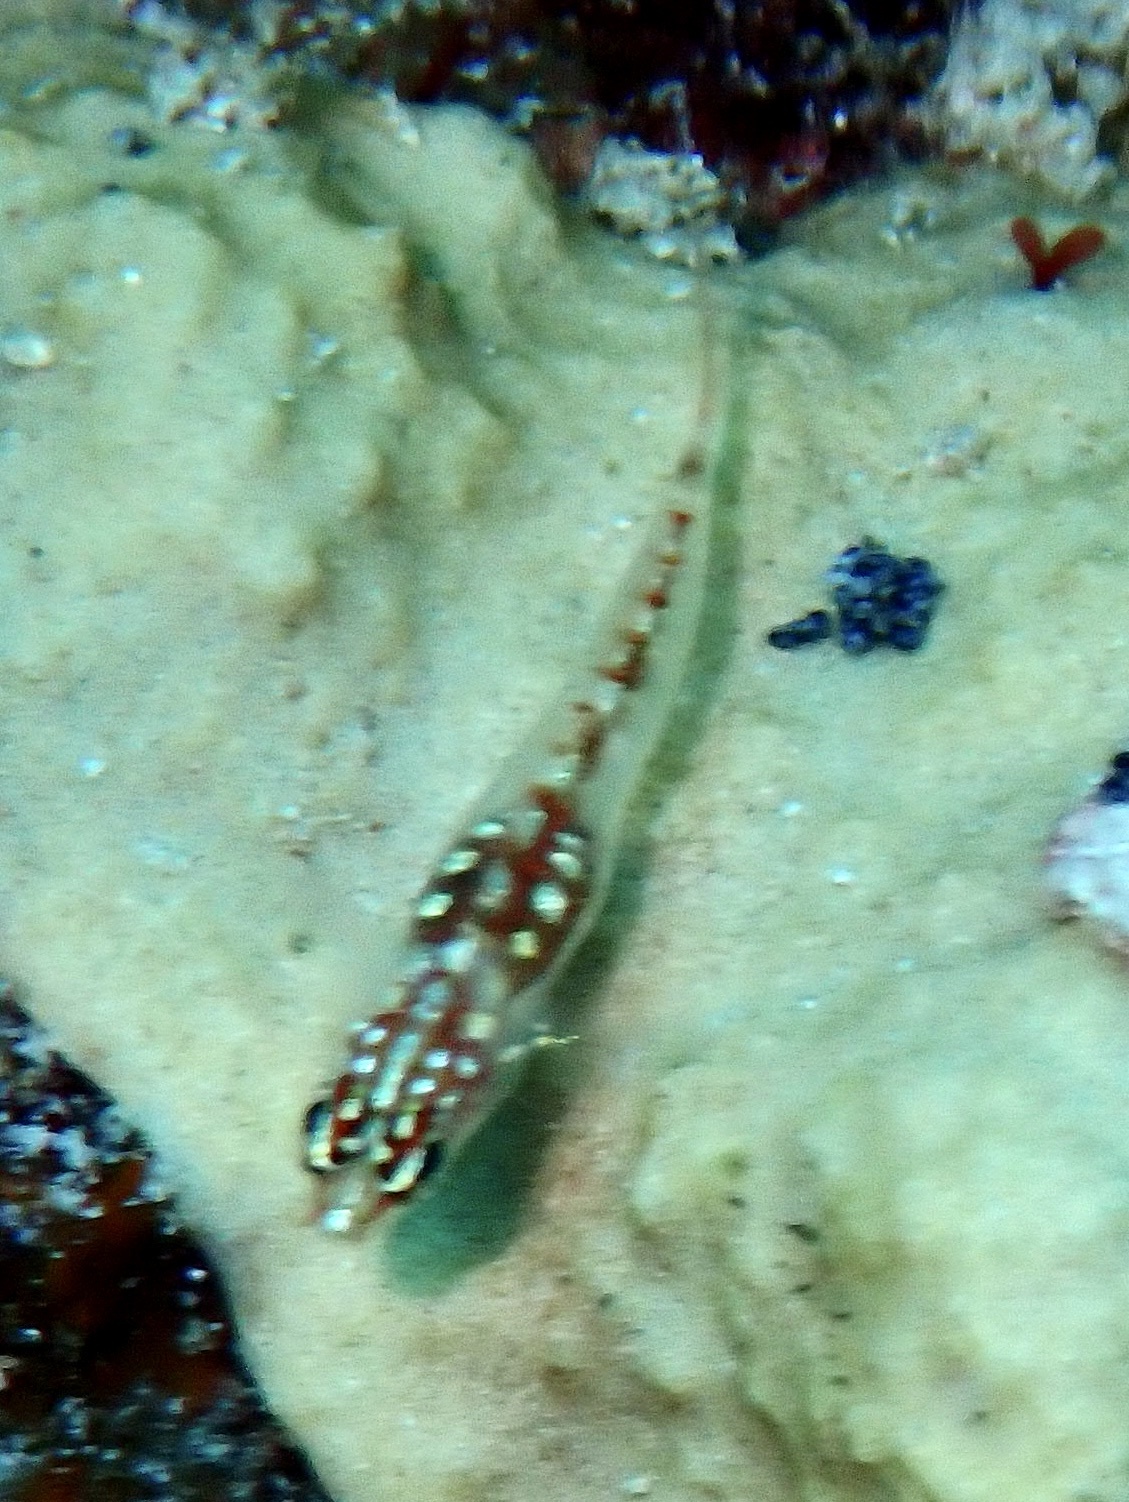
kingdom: Animalia
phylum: Chordata
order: Perciformes
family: Gobiidae
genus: Eviota
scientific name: Eviota marerubrum
